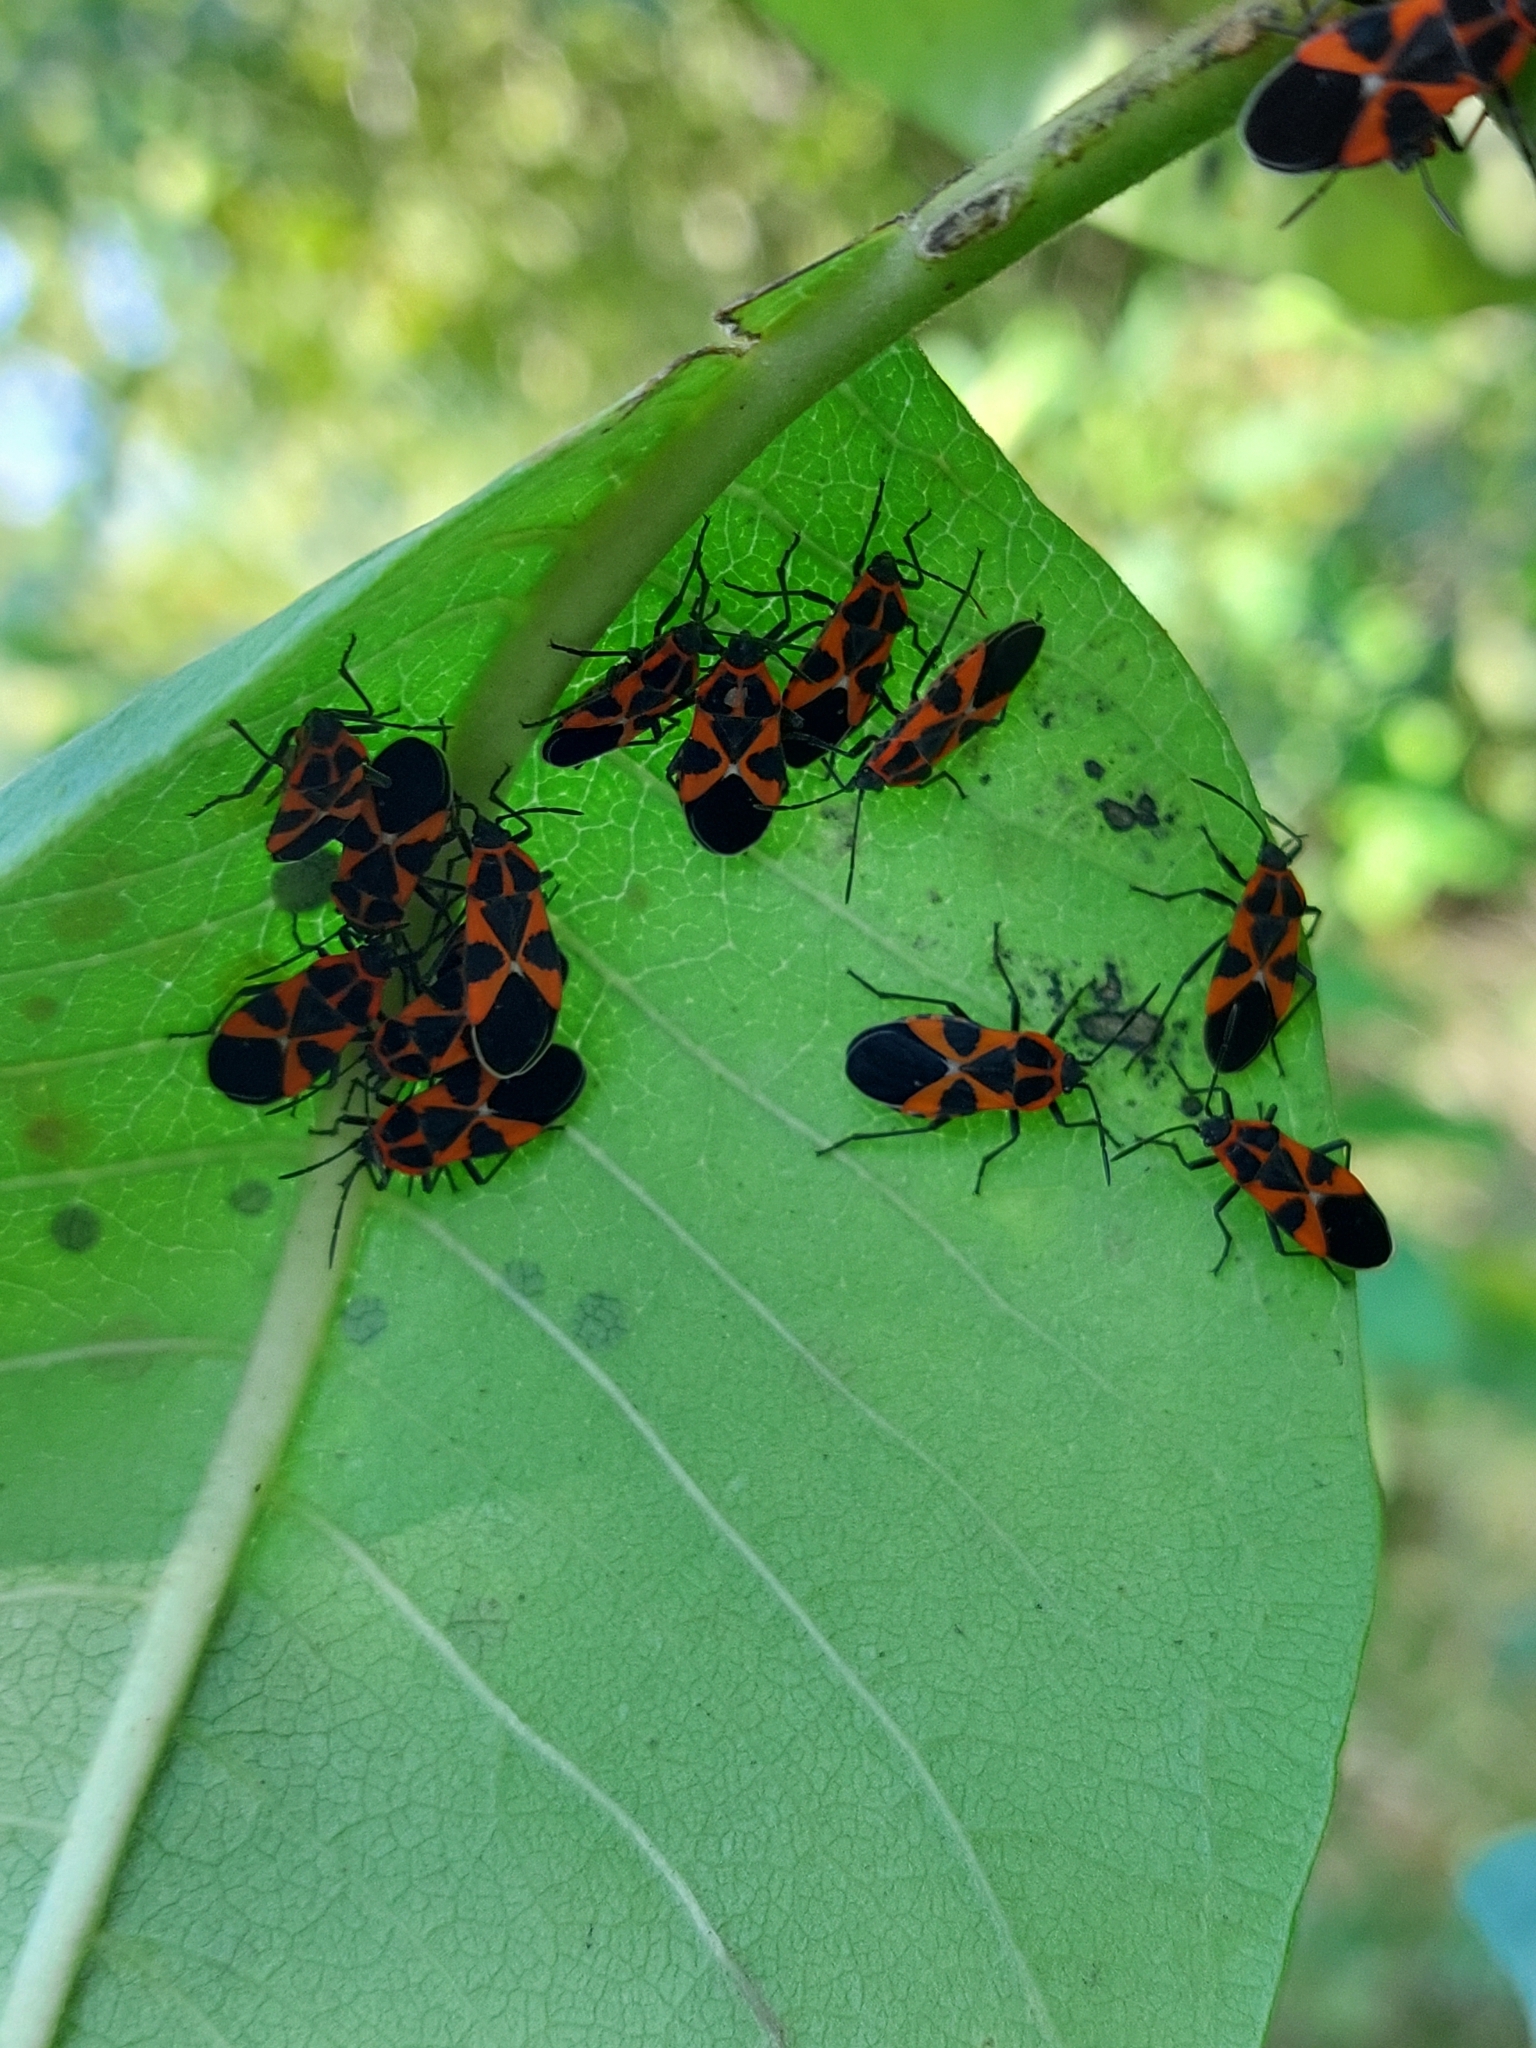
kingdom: Animalia
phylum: Arthropoda
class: Insecta
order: Hemiptera
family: Lygaeidae
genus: Tropidothorax
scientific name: Tropidothorax leucopterus
